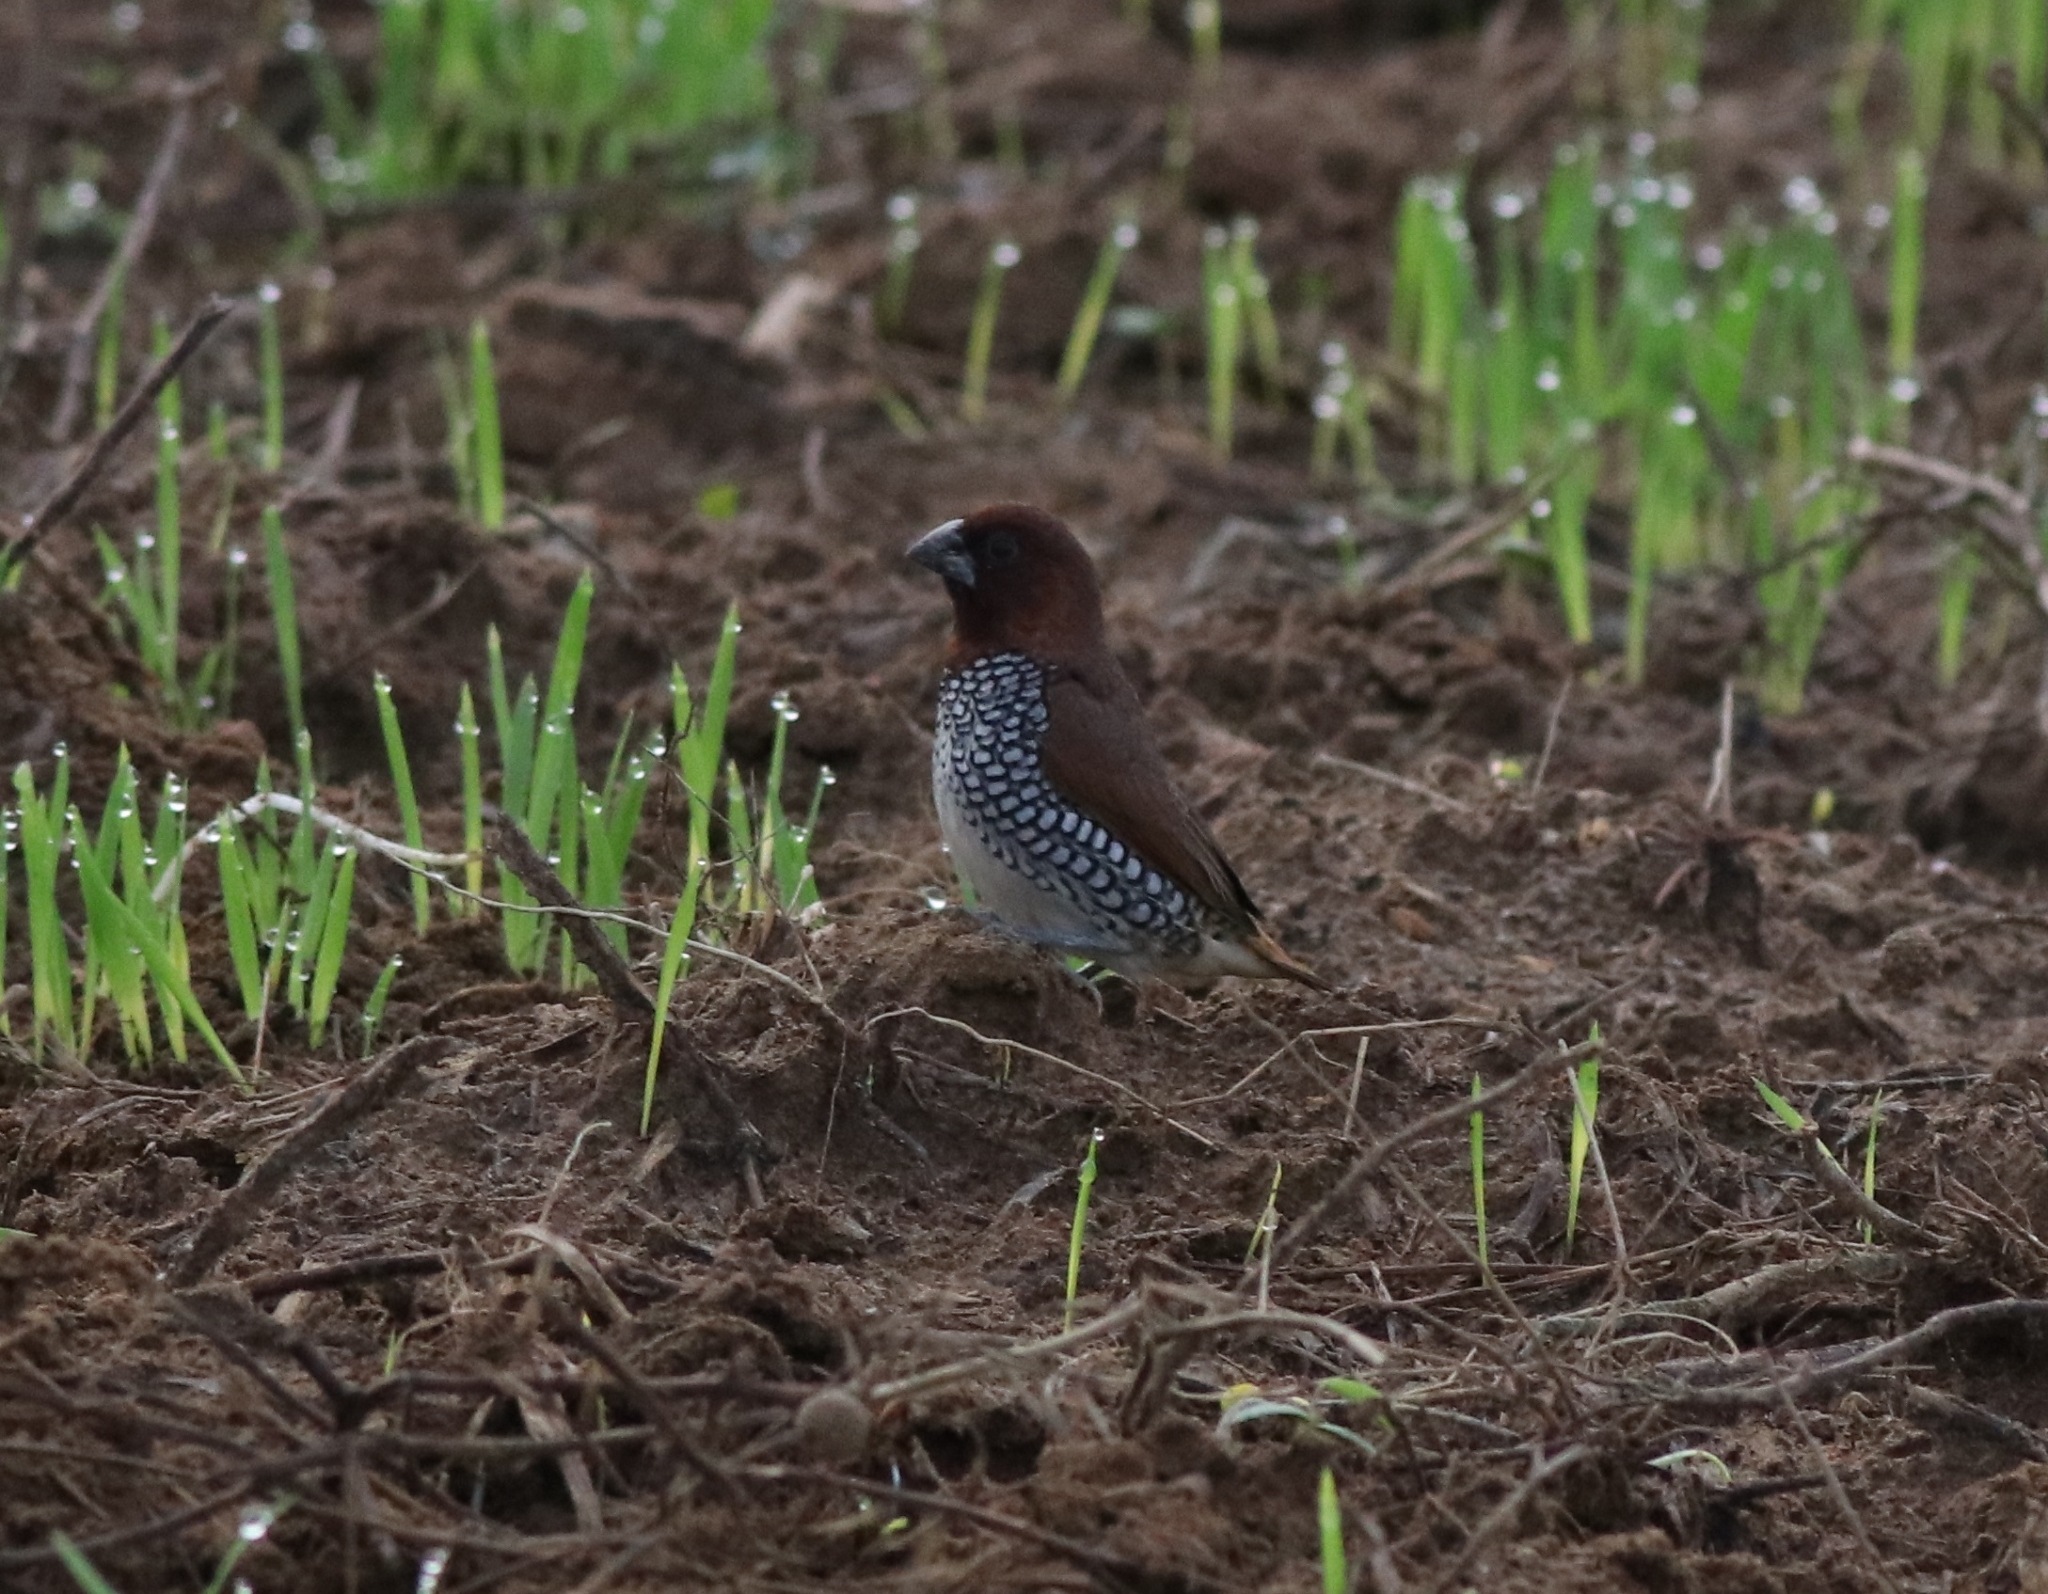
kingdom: Animalia
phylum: Chordata
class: Aves
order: Passeriformes
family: Estrildidae
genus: Lonchura
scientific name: Lonchura punctulata
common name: Scaly-breasted munia
